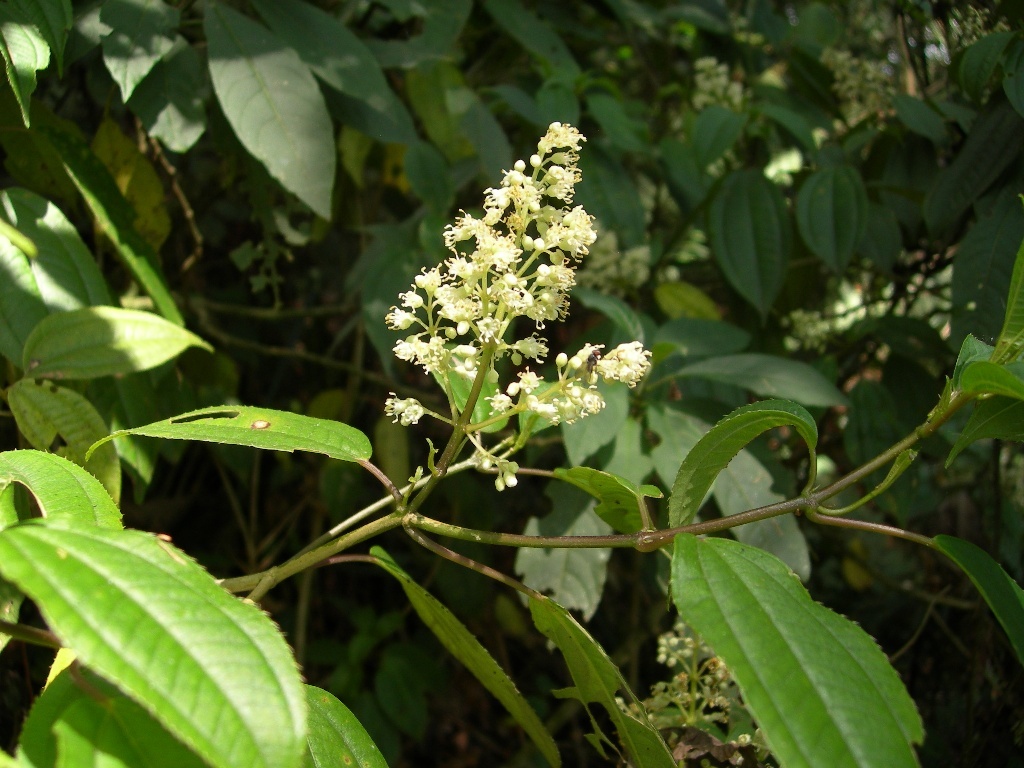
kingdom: Plantae
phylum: Tracheophyta
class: Magnoliopsida
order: Myrtales
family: Melastomataceae
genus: Miconia
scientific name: Miconia glaberrima
